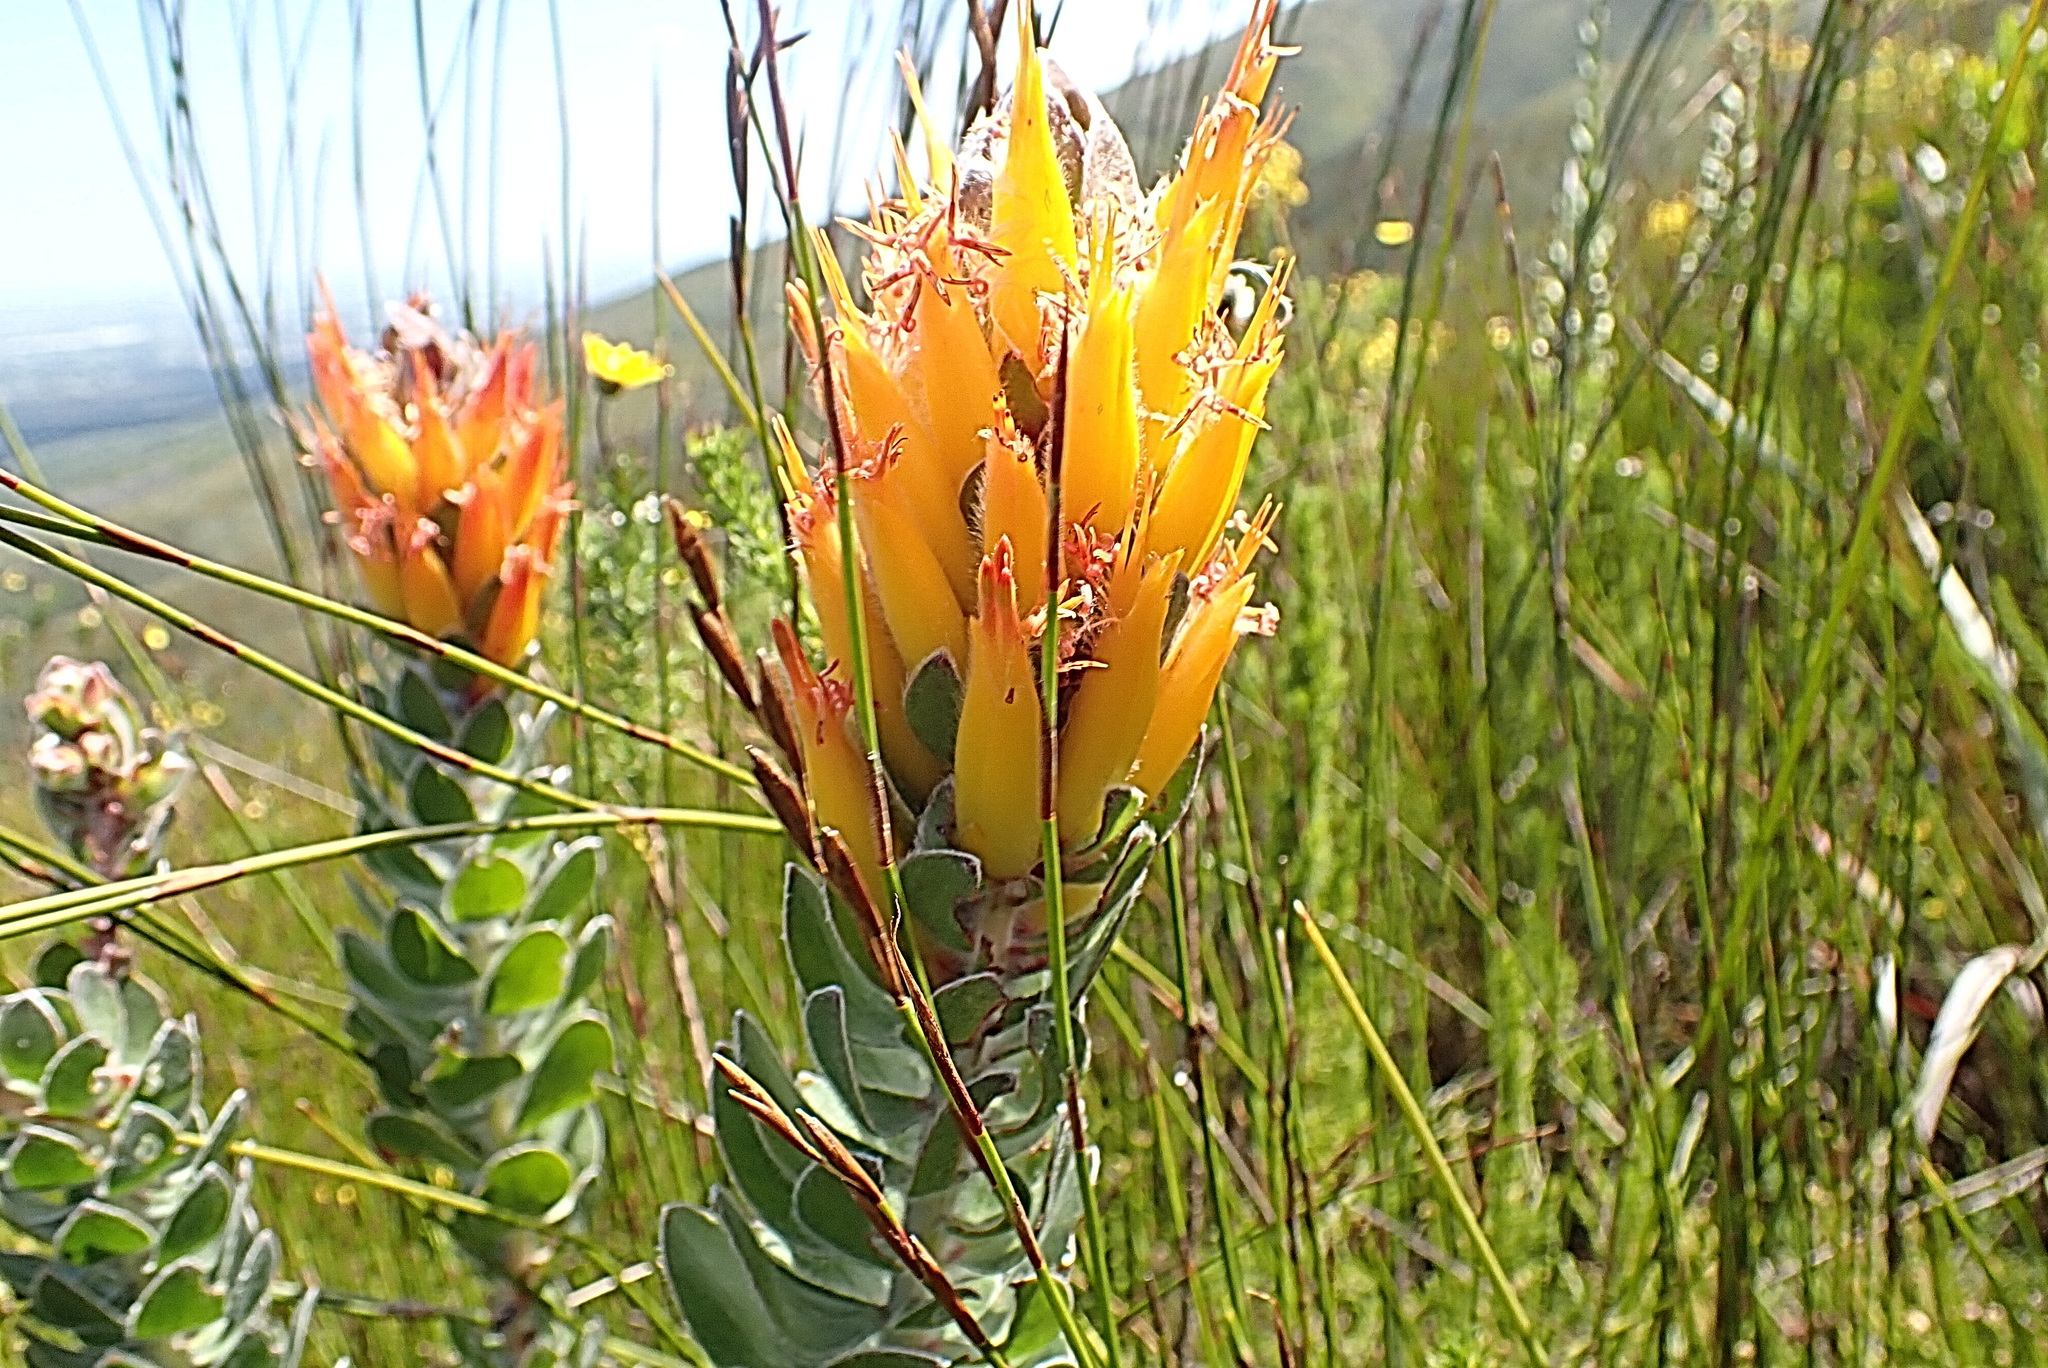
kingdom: Plantae
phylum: Tracheophyta
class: Magnoliopsida
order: Proteales
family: Proteaceae
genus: Mimetes
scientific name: Mimetes pauciflora
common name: Three-flowered pagoda
